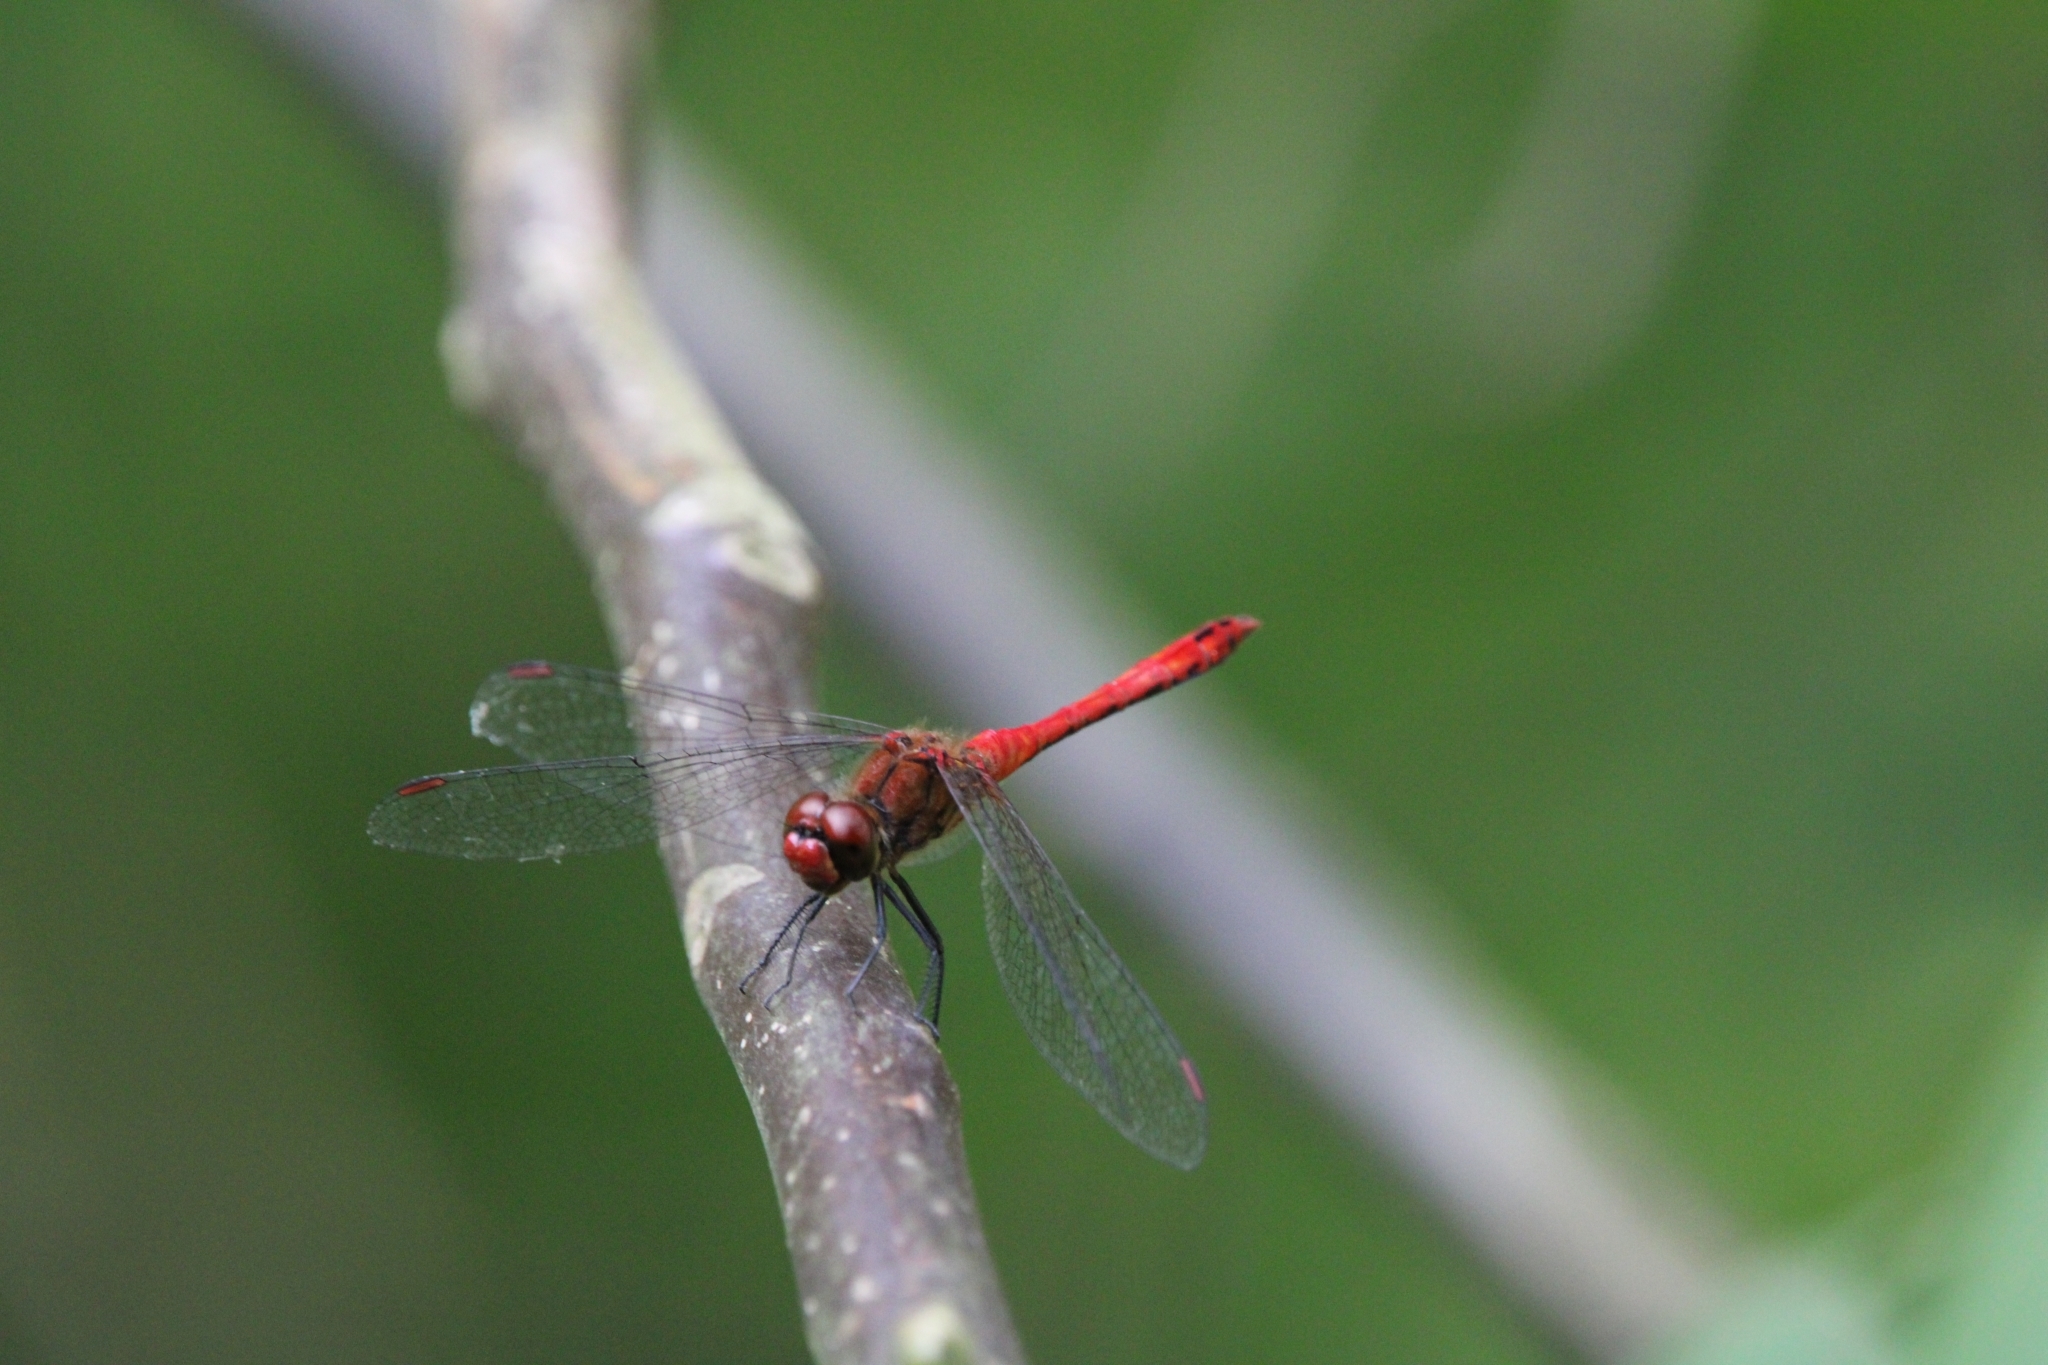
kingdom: Animalia
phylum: Arthropoda
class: Insecta
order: Odonata
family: Libellulidae
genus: Sympetrum
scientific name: Sympetrum sanguineum
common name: Ruddy darter
